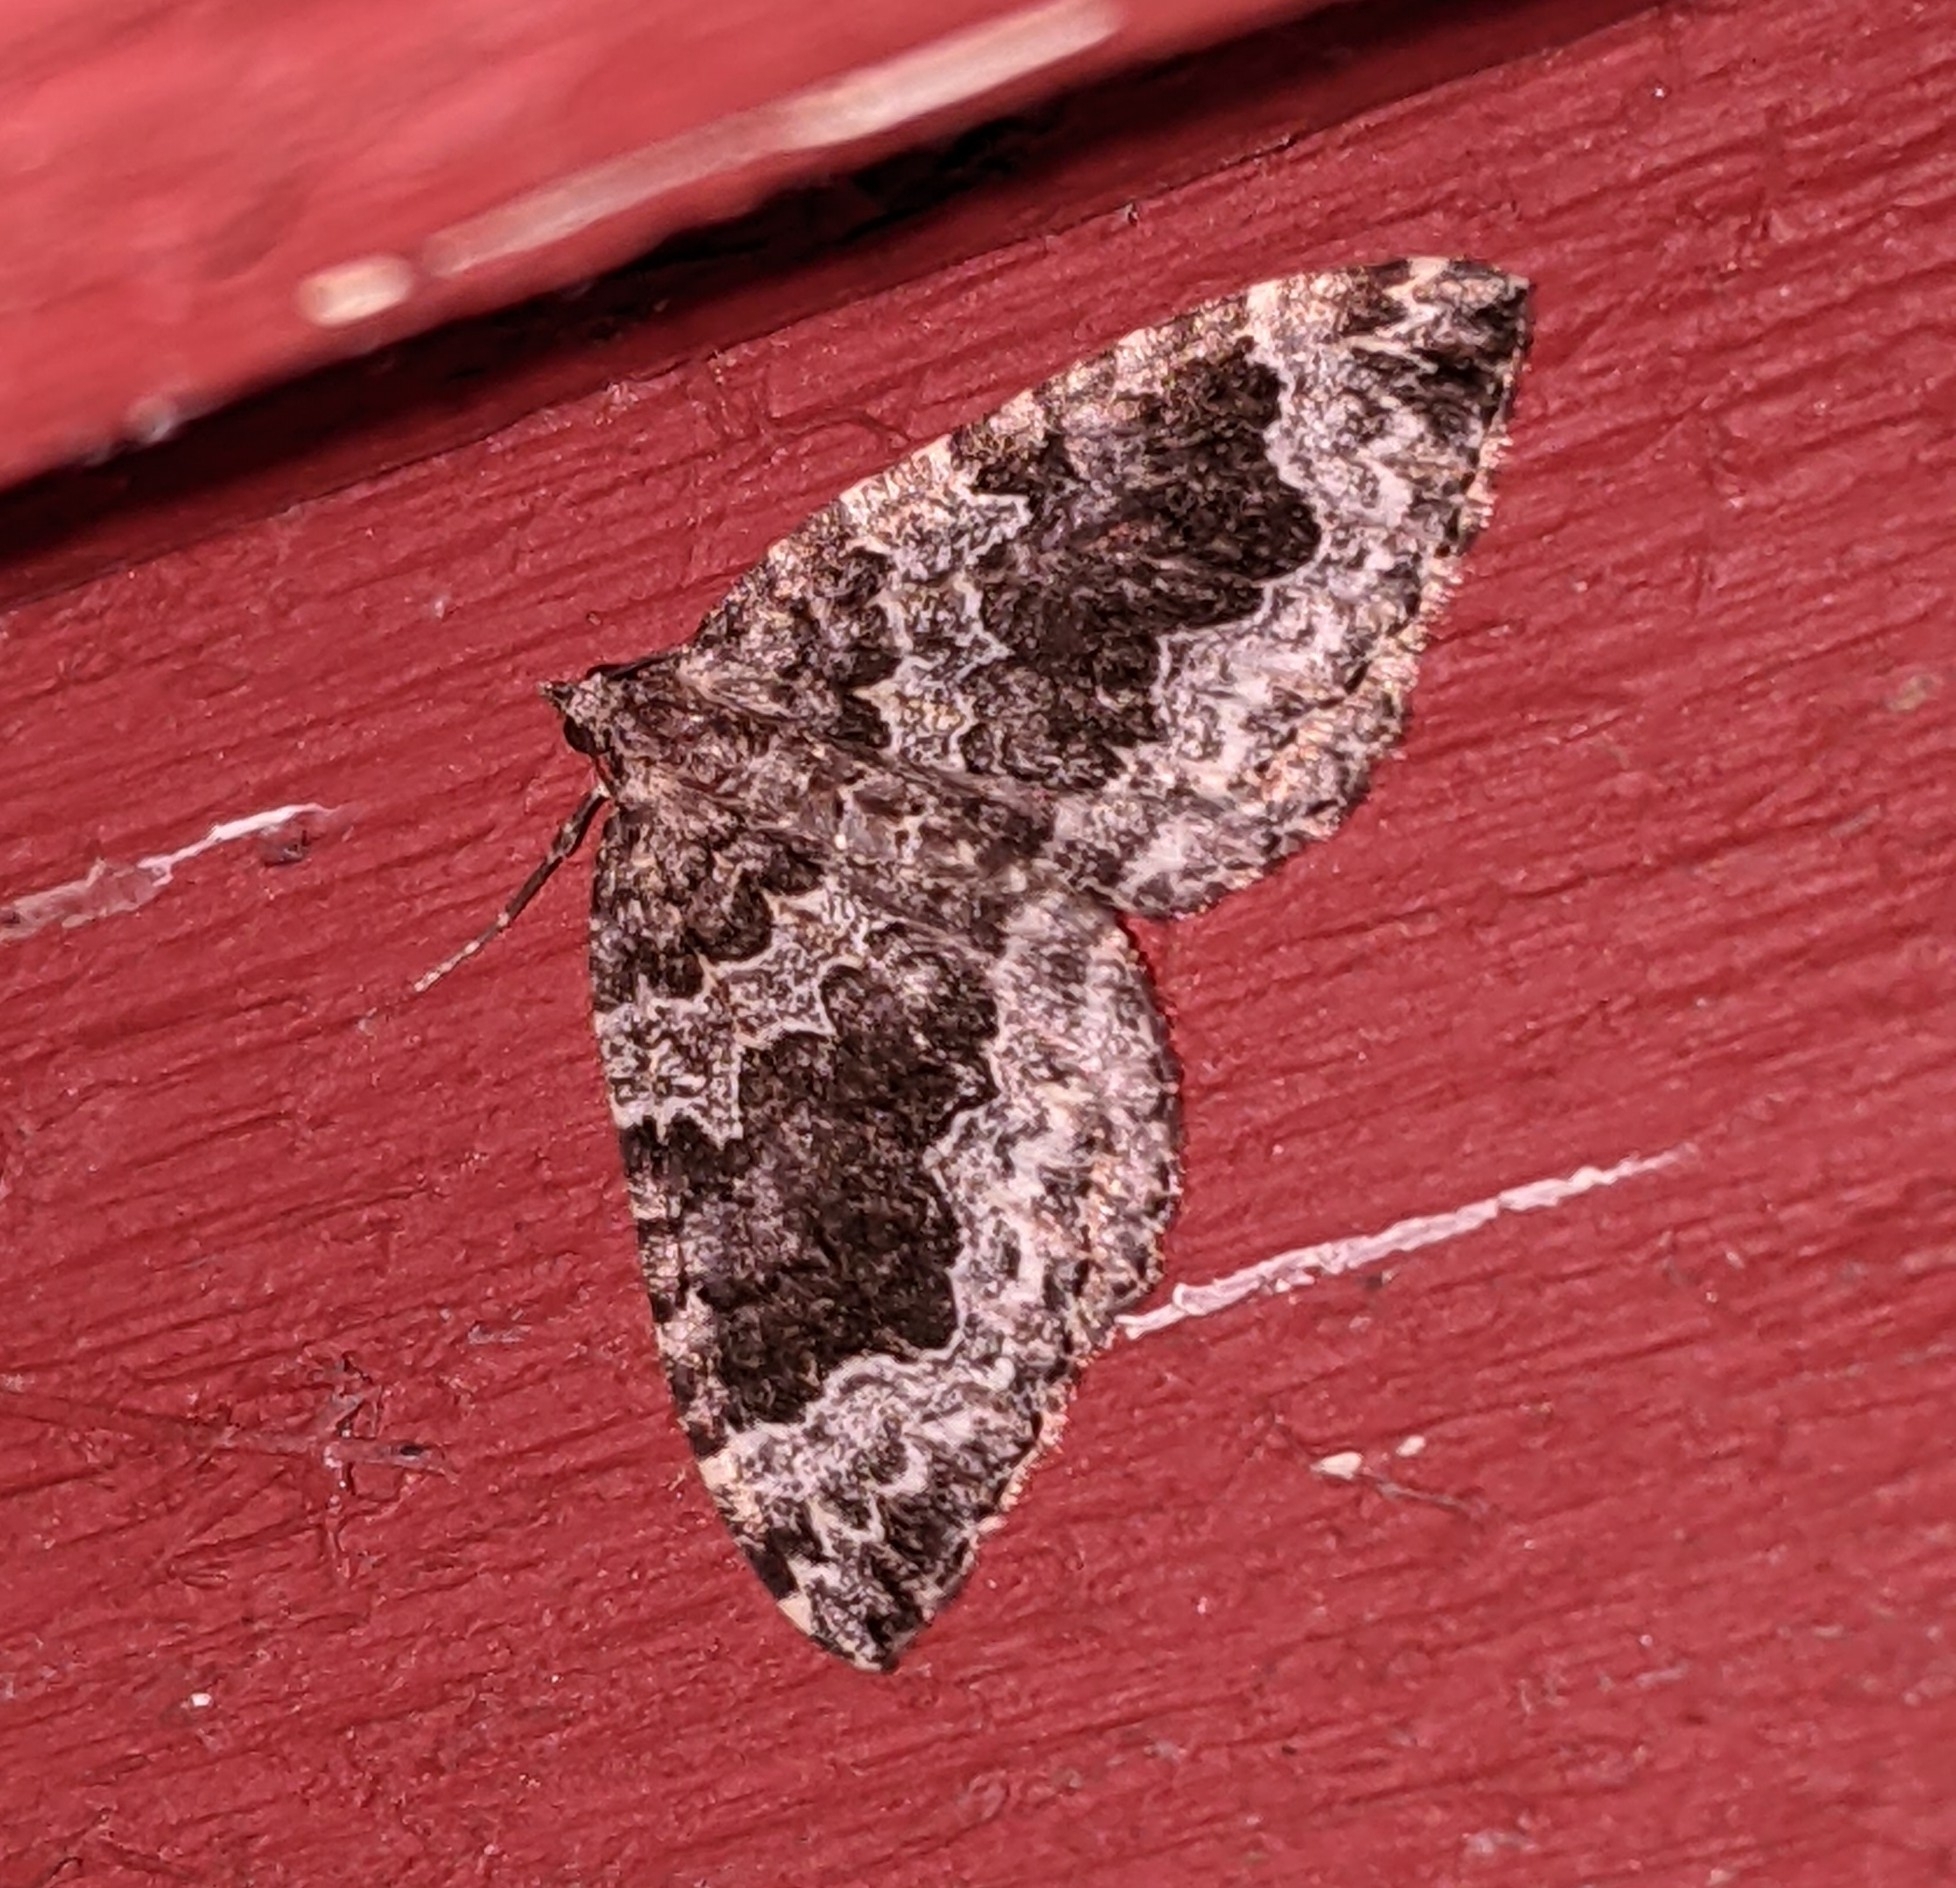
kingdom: Animalia
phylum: Arthropoda
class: Insecta
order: Lepidoptera
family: Geometridae
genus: Eustroma
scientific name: Eustroma semiatrata
